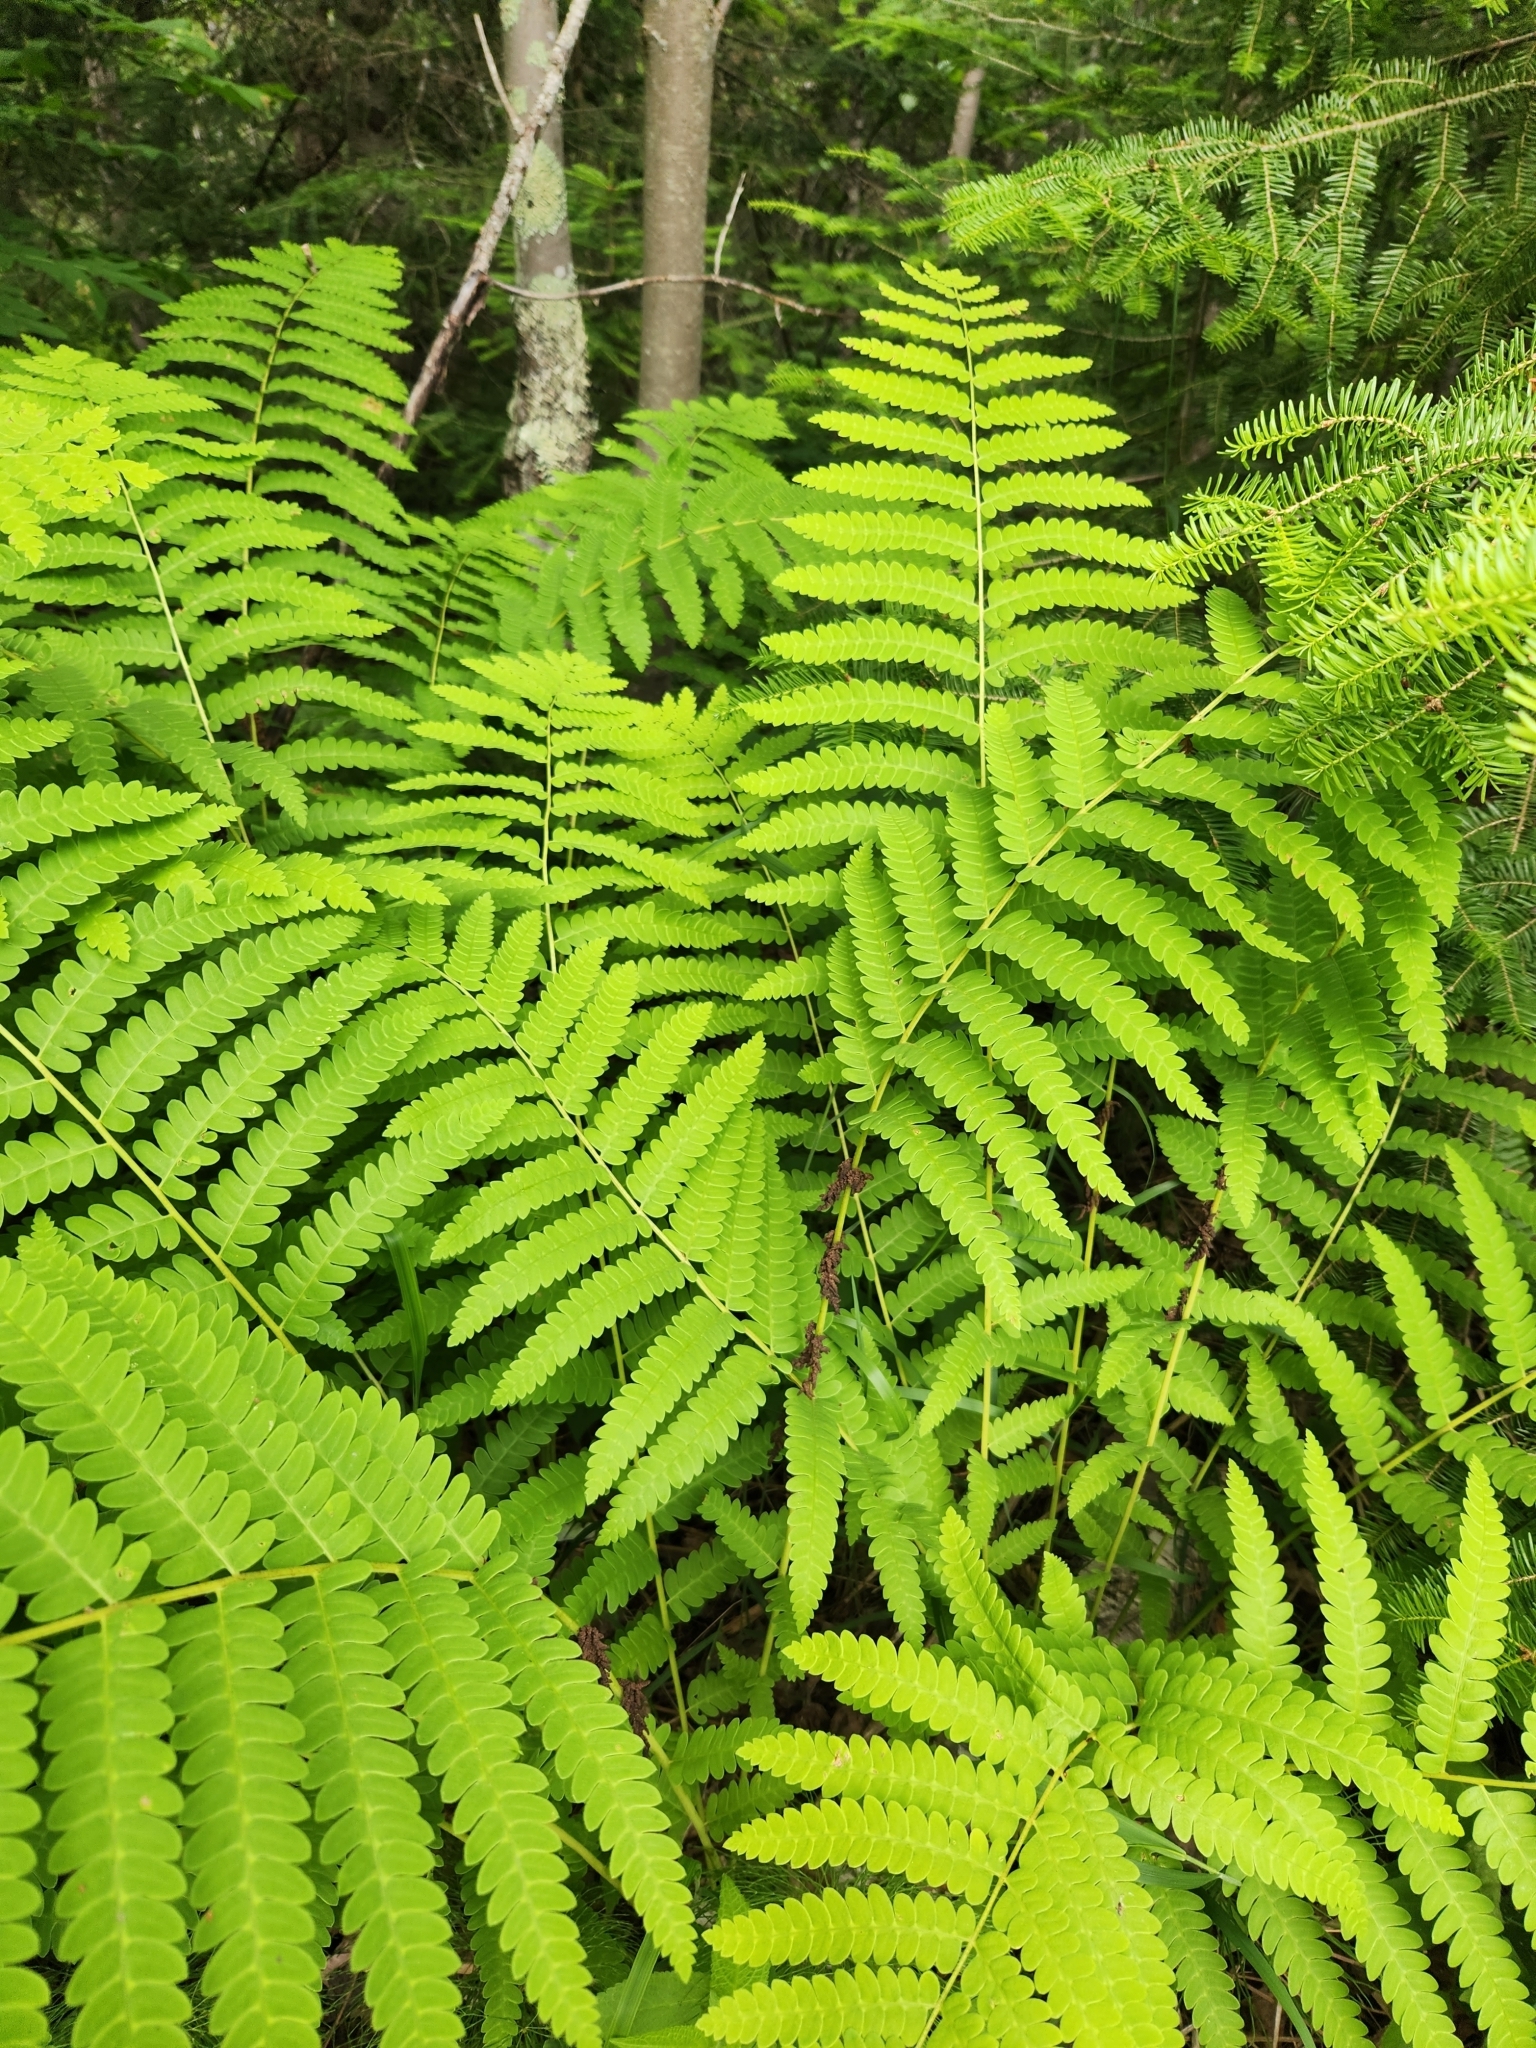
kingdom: Plantae
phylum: Tracheophyta
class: Polypodiopsida
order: Osmundales
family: Osmundaceae
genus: Claytosmunda
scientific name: Claytosmunda claytoniana
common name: Clayton's fern
